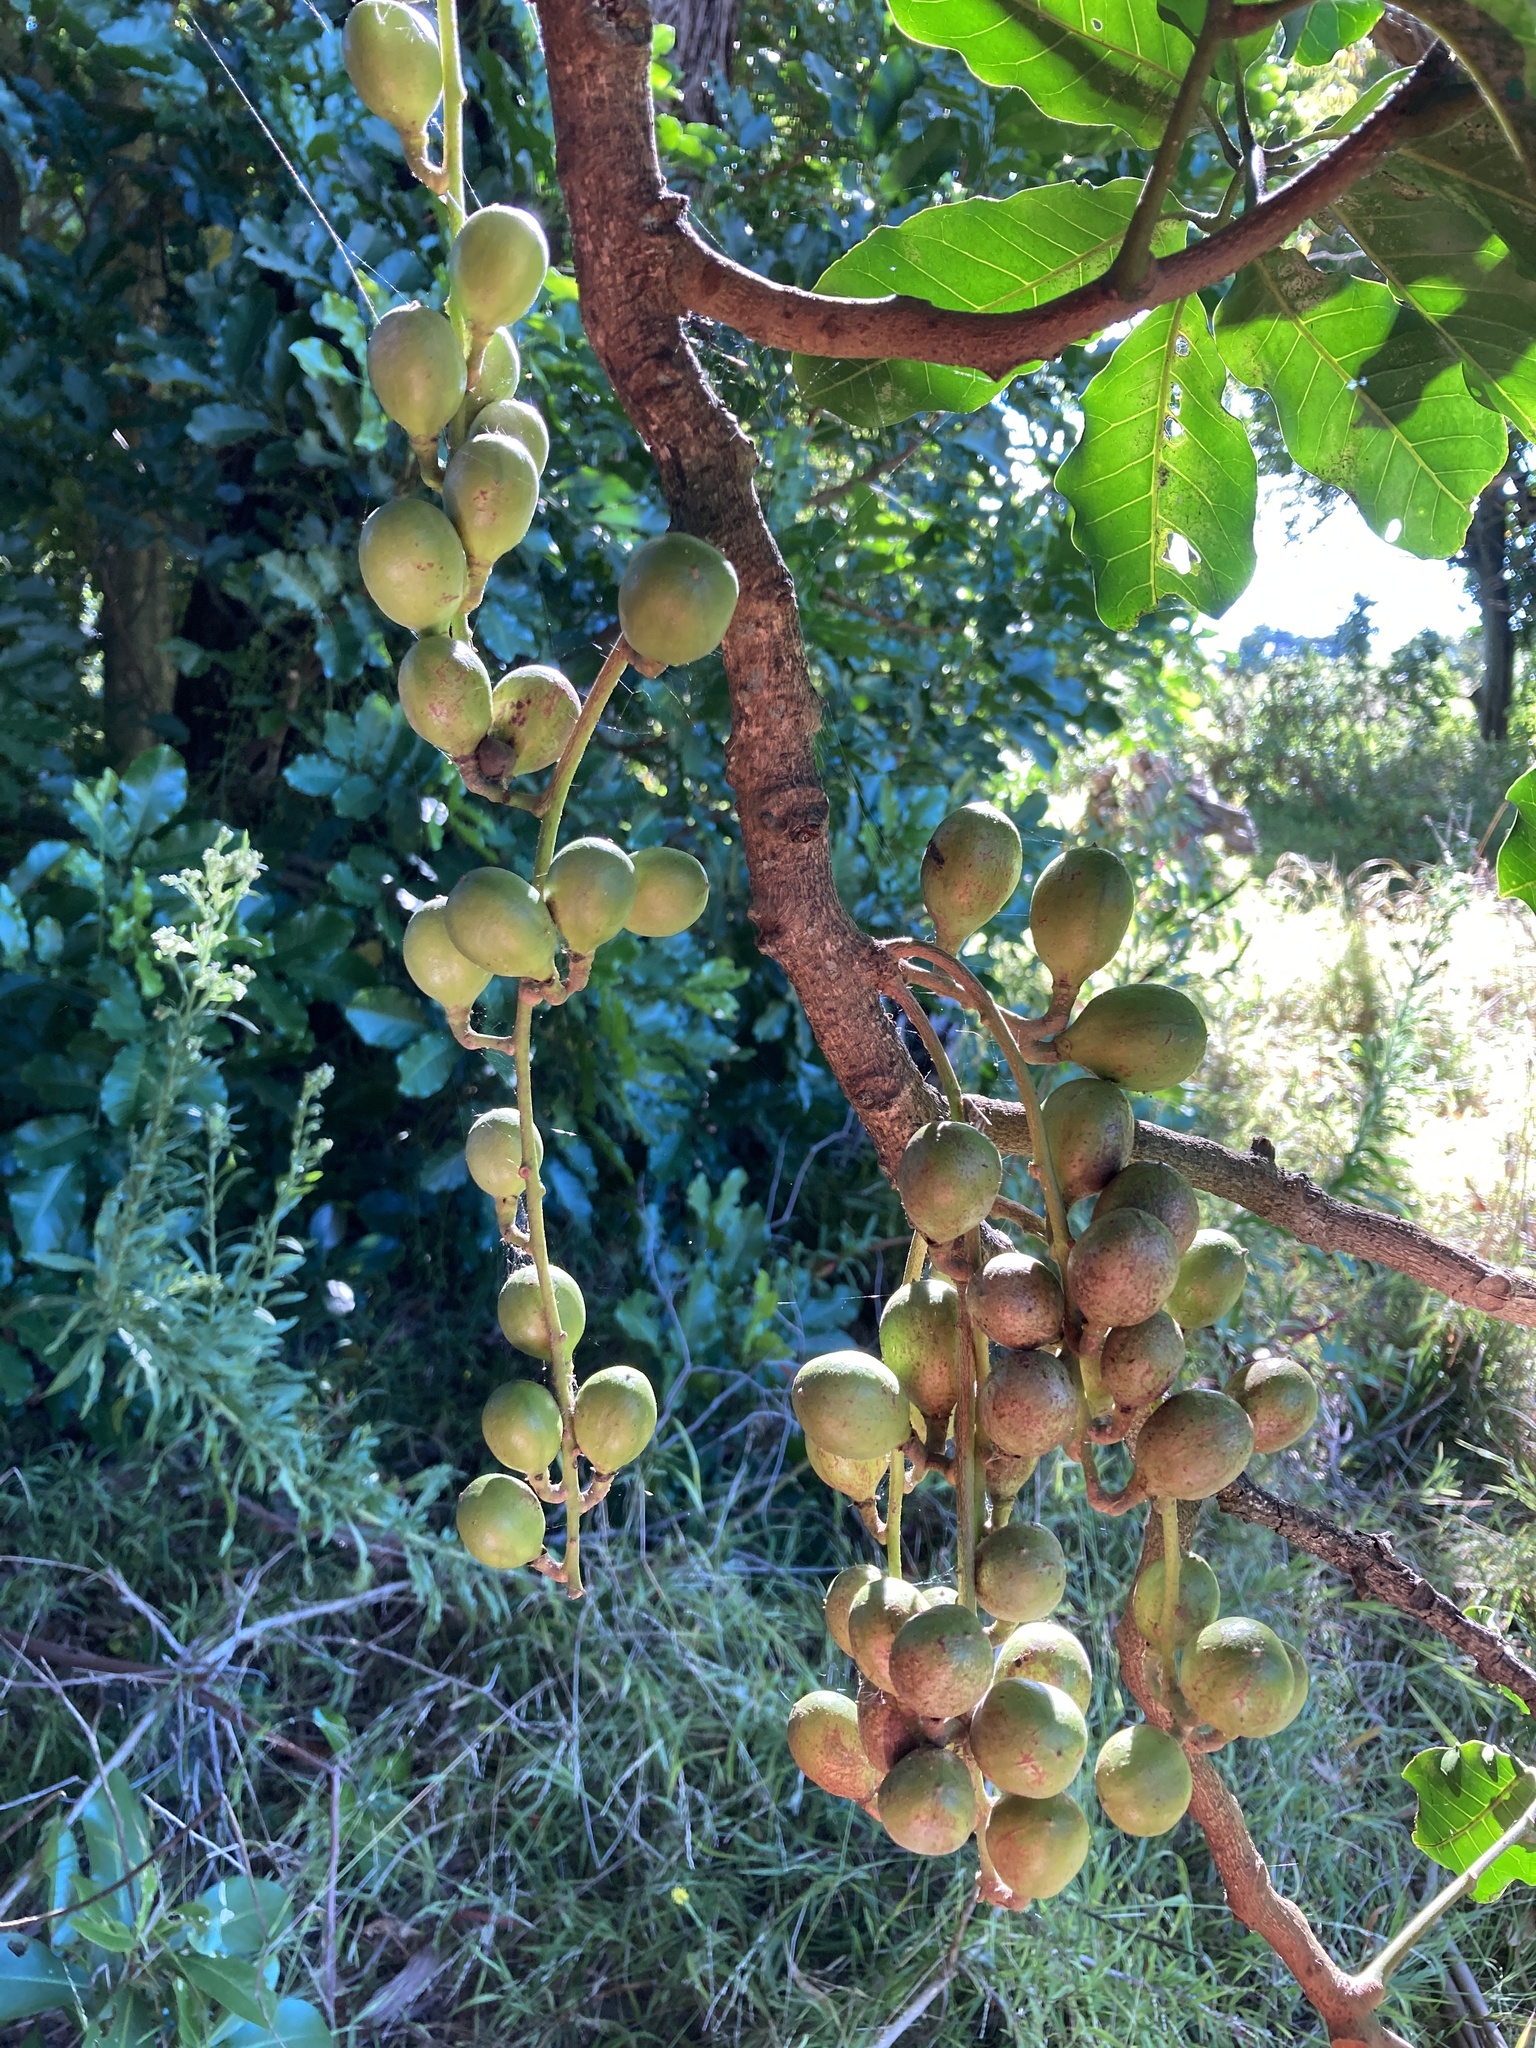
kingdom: Plantae
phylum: Tracheophyta
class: Magnoliopsida
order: Sapindales
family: Meliaceae
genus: Didymocheton
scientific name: Didymocheton spectabilis
